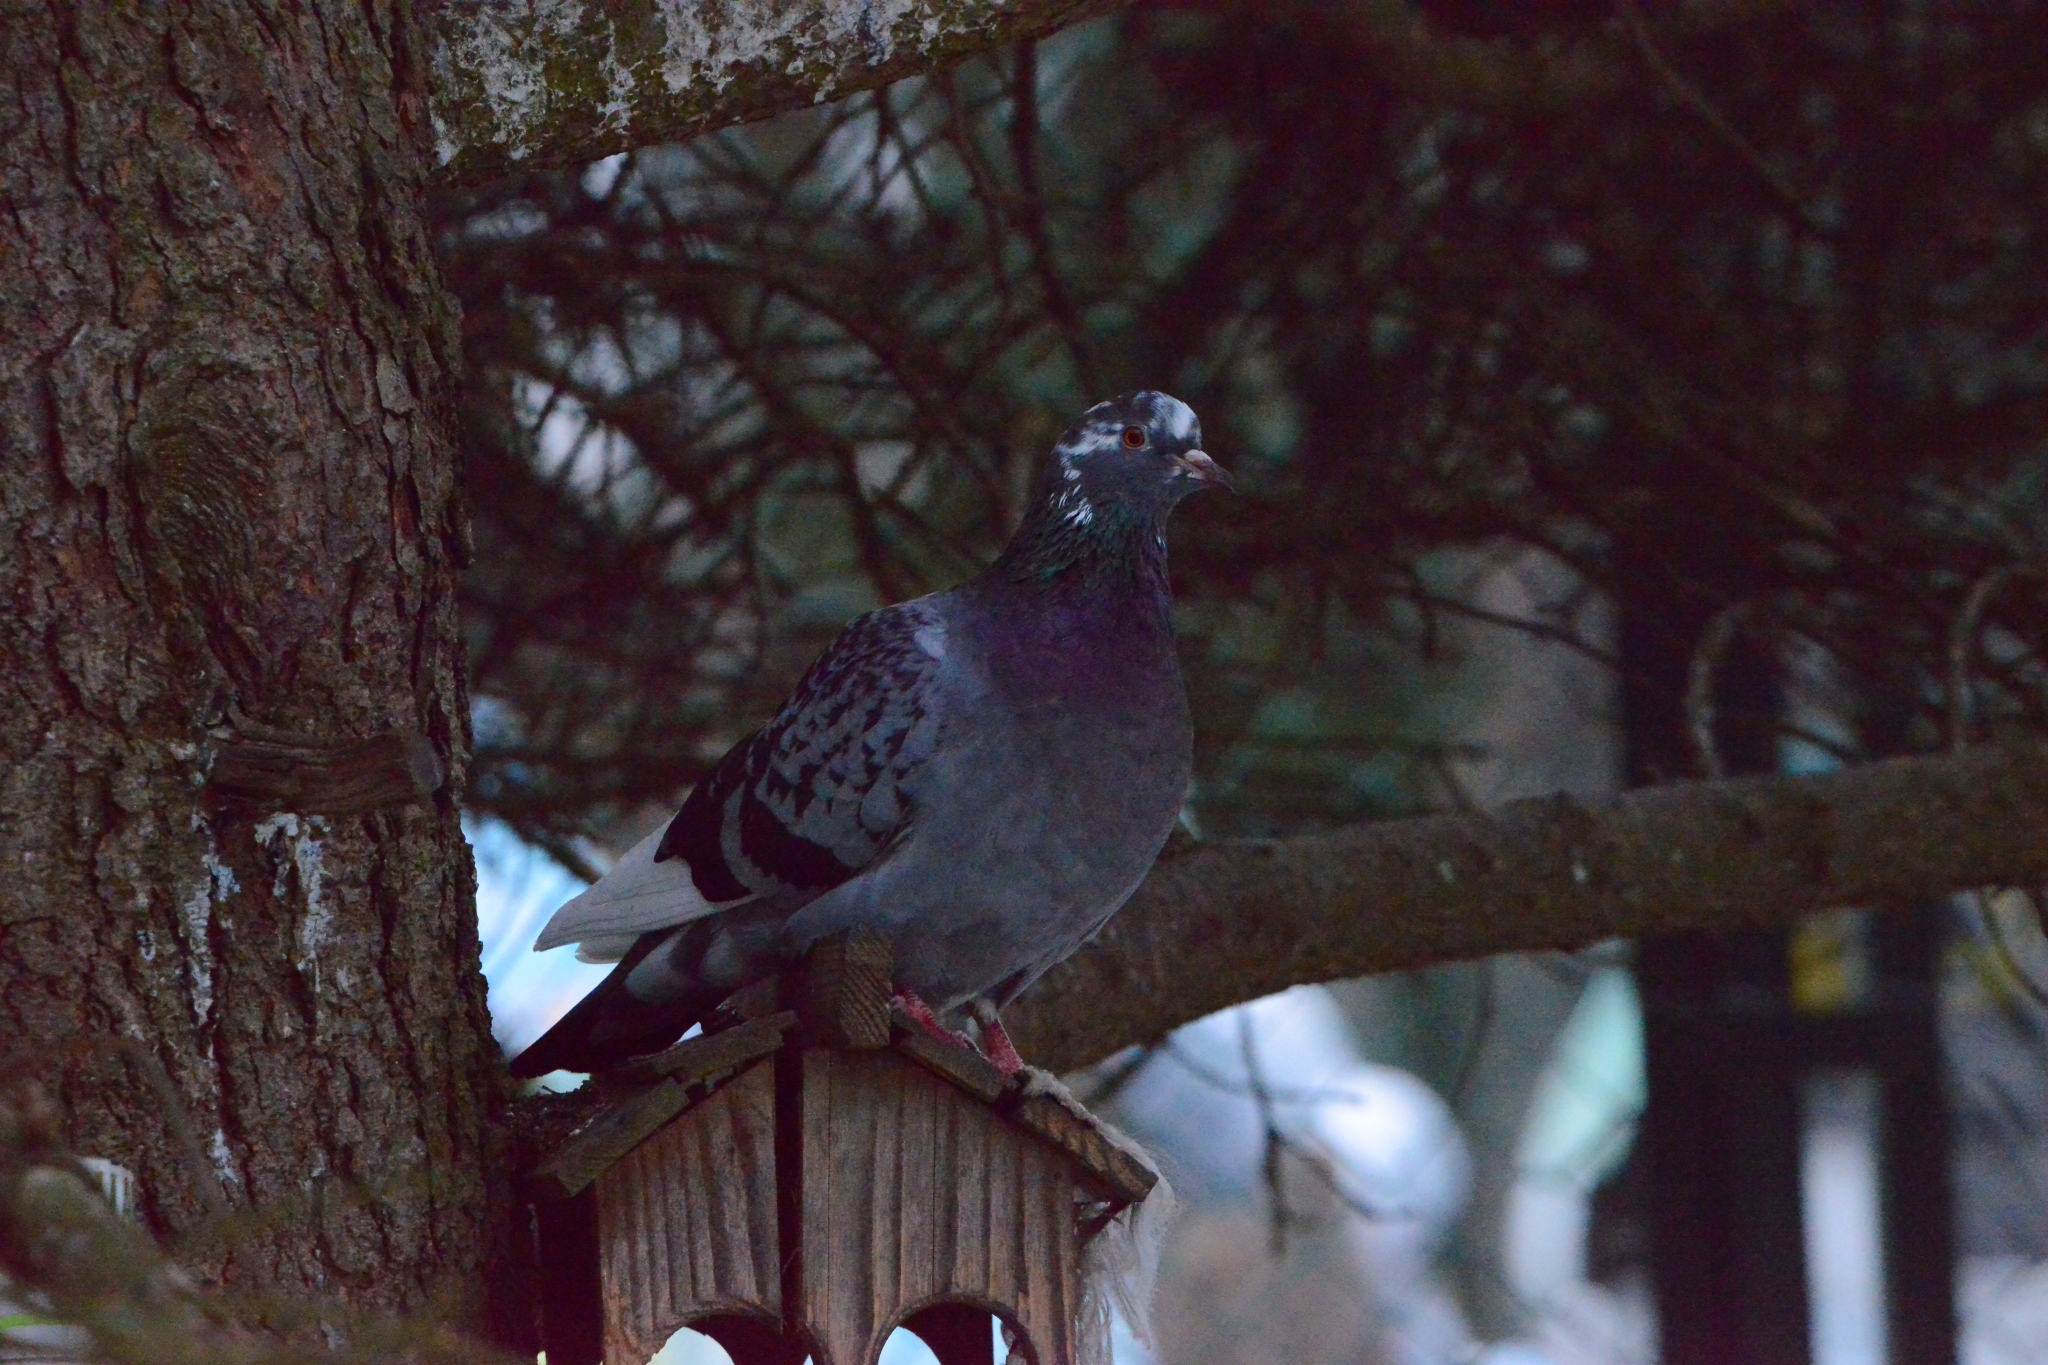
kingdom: Animalia
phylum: Chordata
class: Aves
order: Columbiformes
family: Columbidae
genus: Columba
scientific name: Columba livia
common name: Rock pigeon
